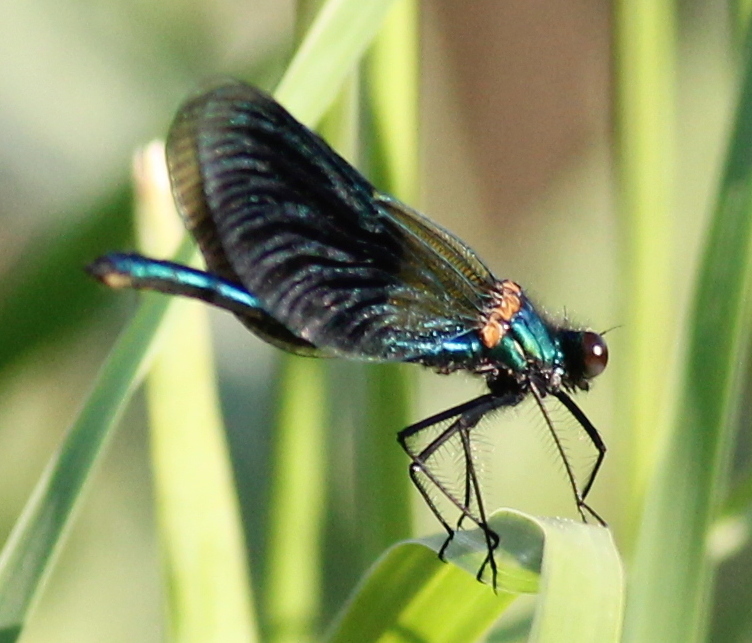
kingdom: Animalia
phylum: Arthropoda
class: Insecta
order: Odonata
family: Calopterygidae
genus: Calopteryx
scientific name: Calopteryx splendens
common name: Banded demoiselle
